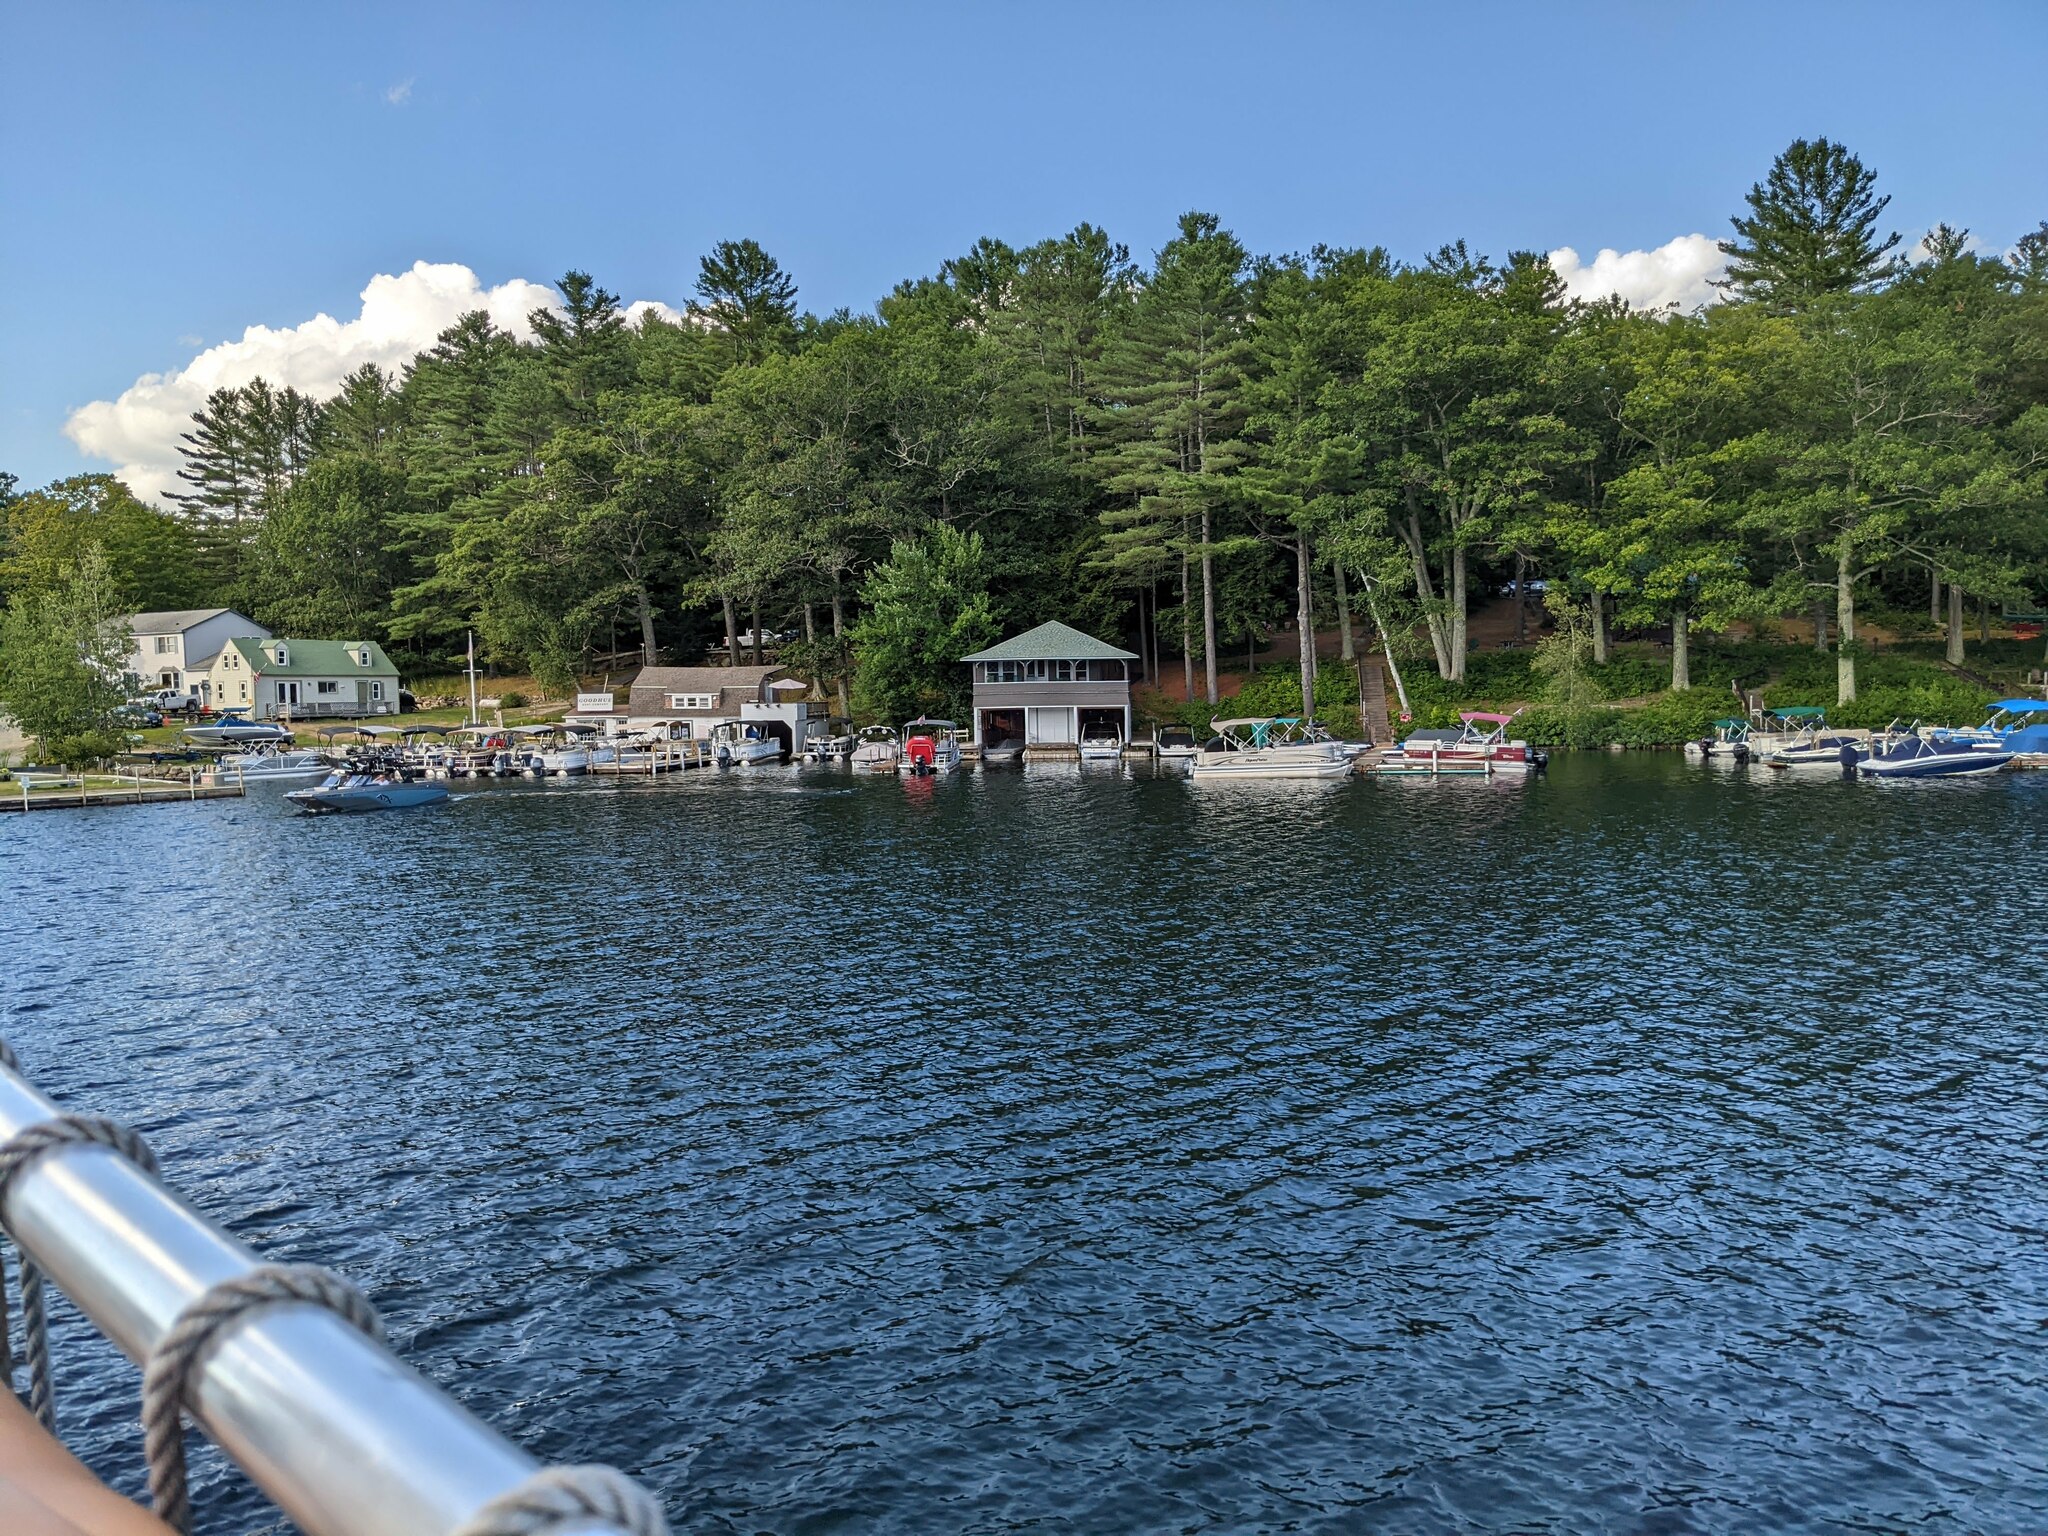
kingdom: Plantae
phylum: Tracheophyta
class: Pinopsida
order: Pinales
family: Pinaceae
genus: Pinus
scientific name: Pinus strobus
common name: Weymouth pine
